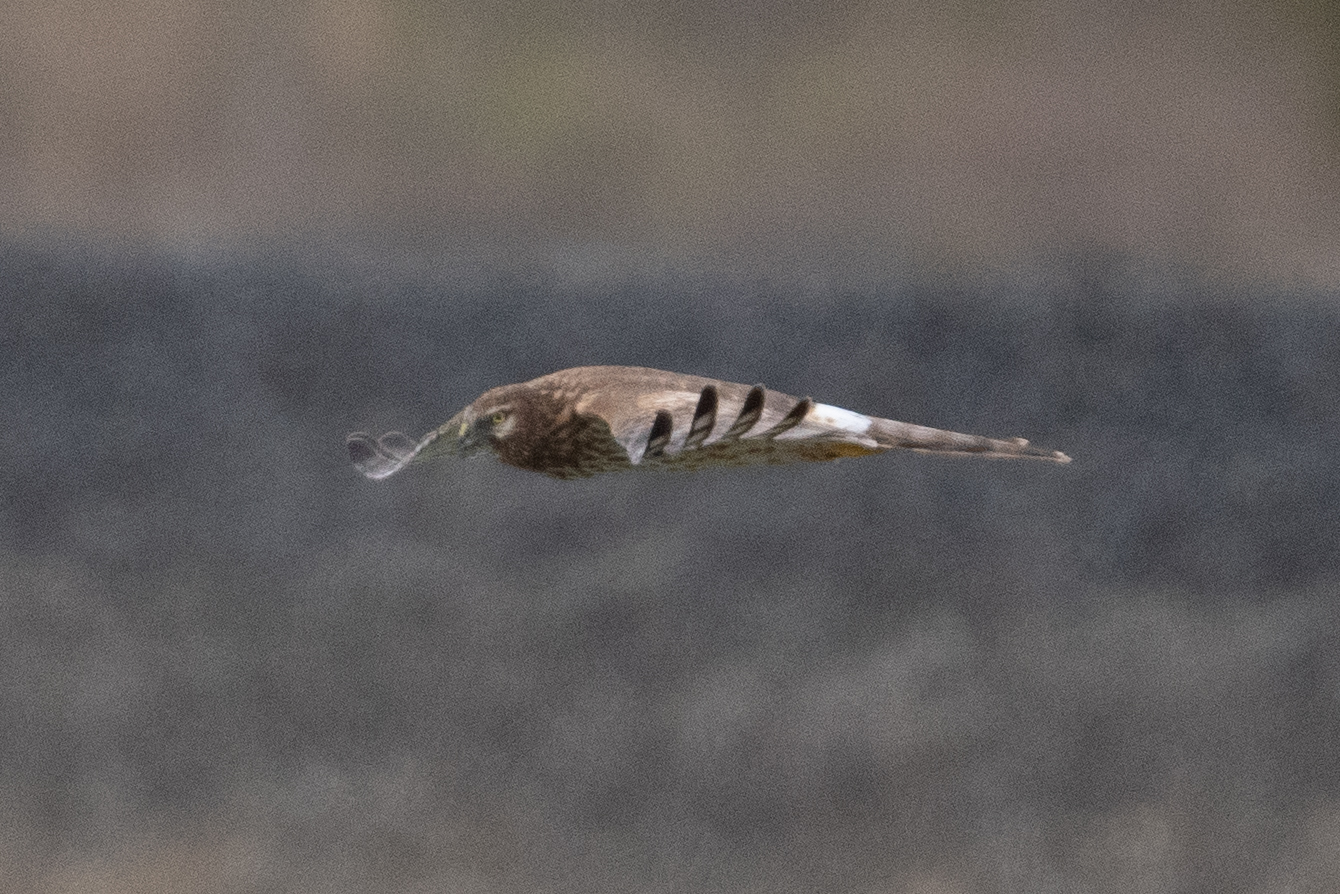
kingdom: Animalia
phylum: Chordata
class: Aves
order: Accipitriformes
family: Accipitridae
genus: Circus
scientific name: Circus cyaneus
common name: Hen harrier
